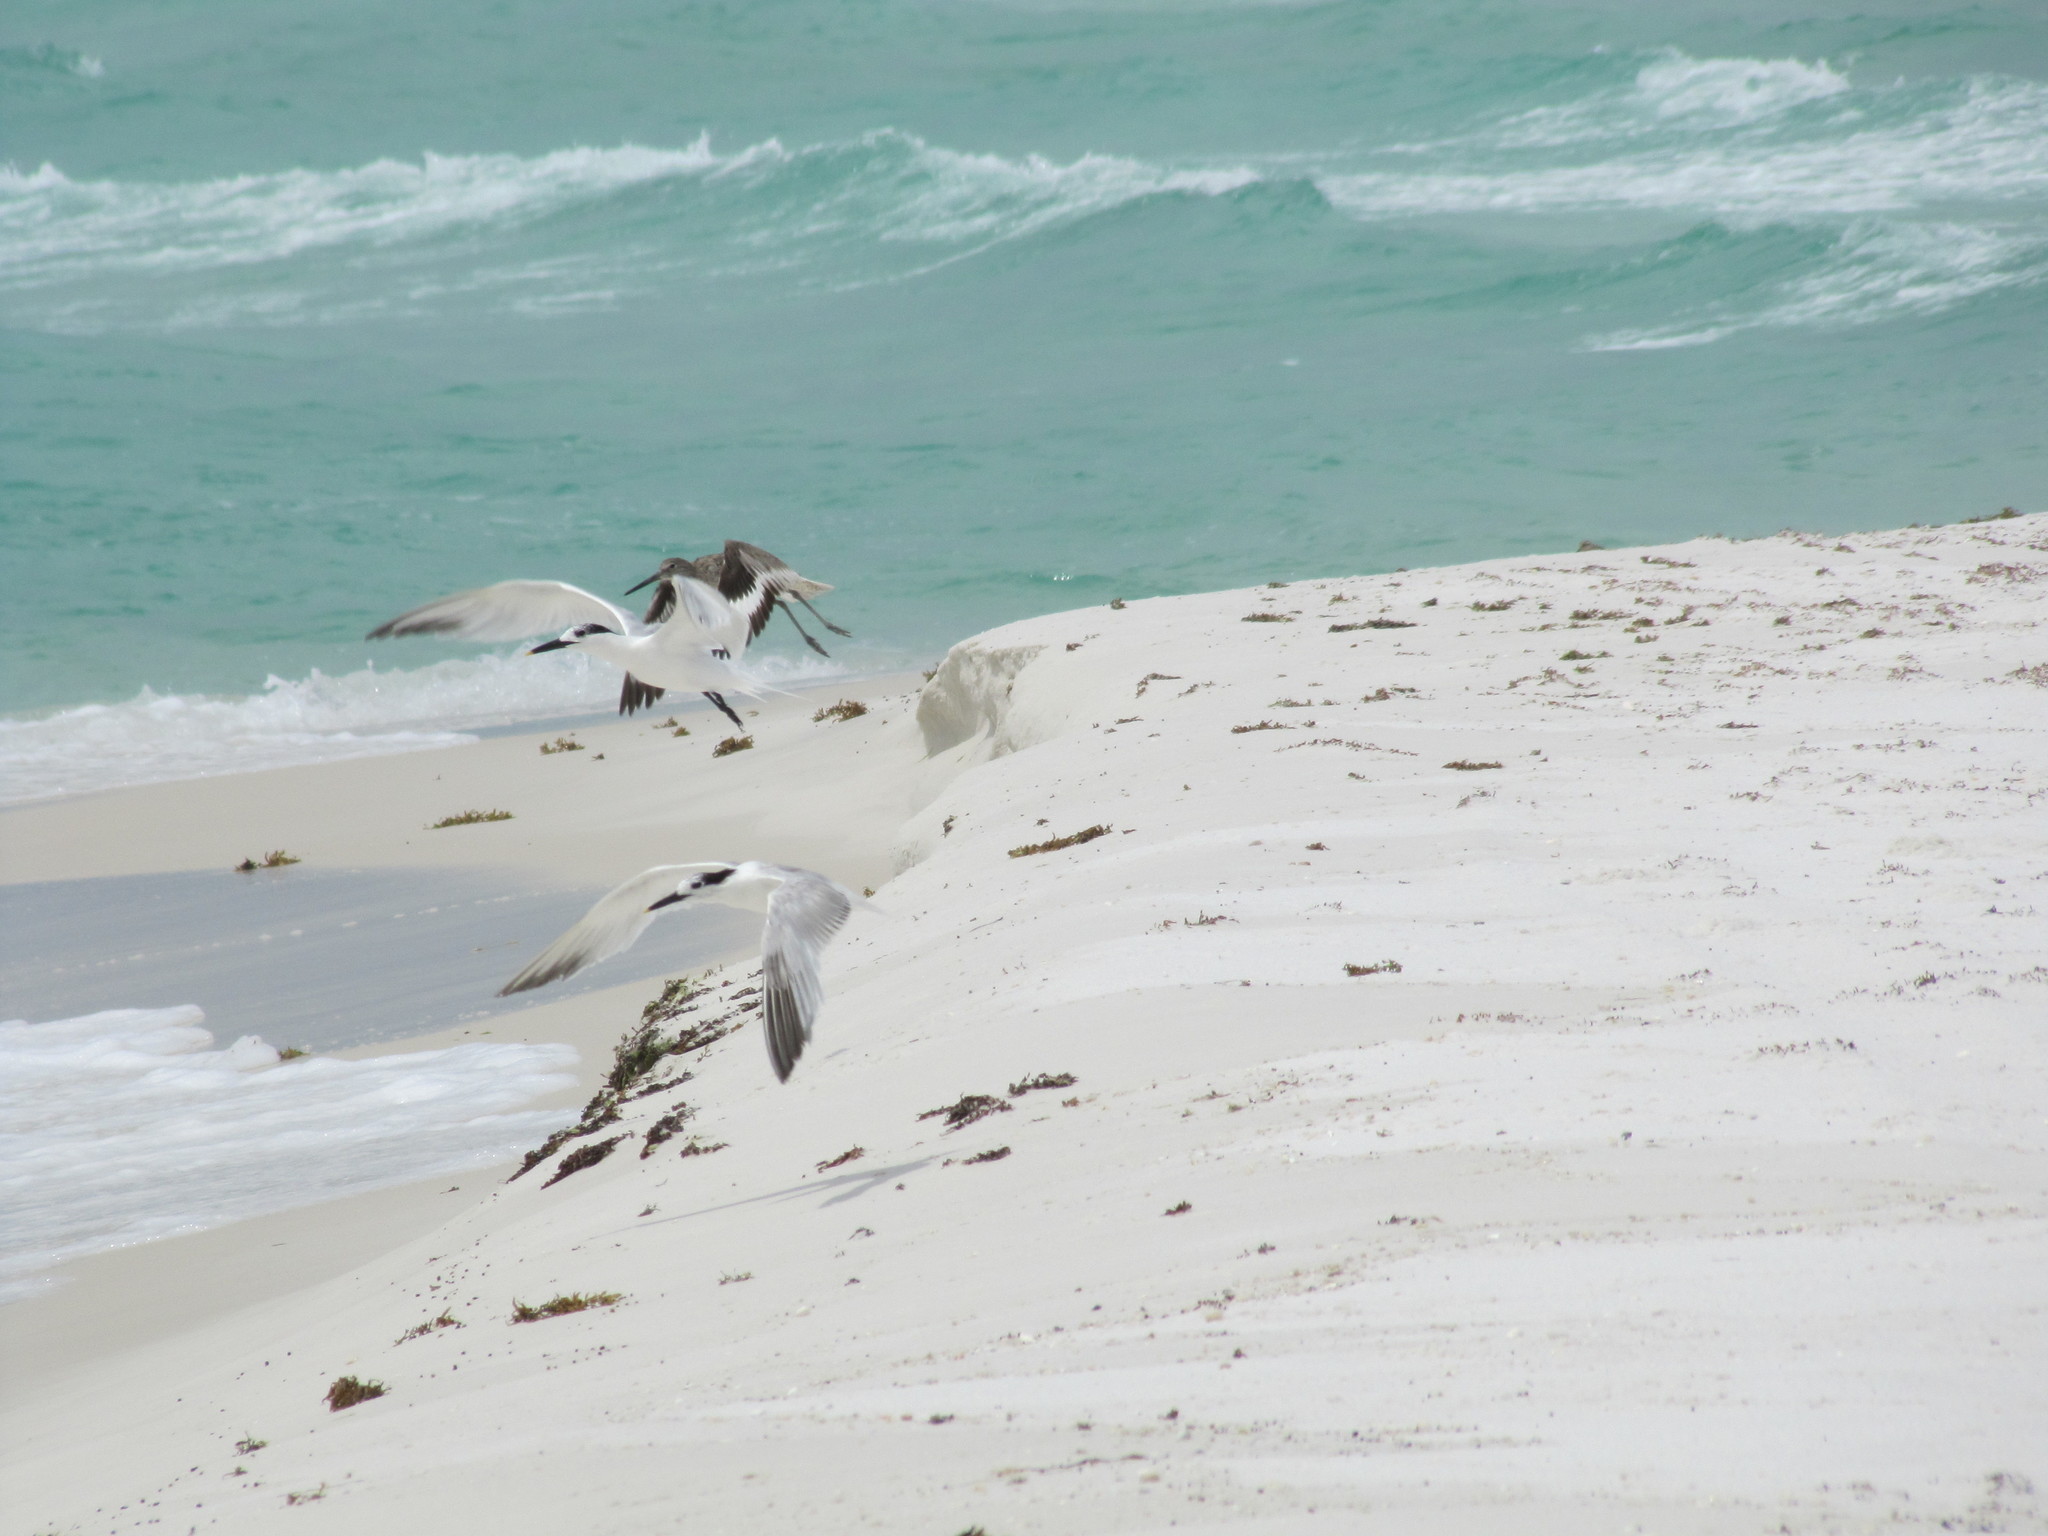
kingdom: Animalia
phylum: Chordata
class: Aves
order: Charadriiformes
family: Laridae
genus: Thalasseus
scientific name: Thalasseus sandvicensis
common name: Sandwich tern
